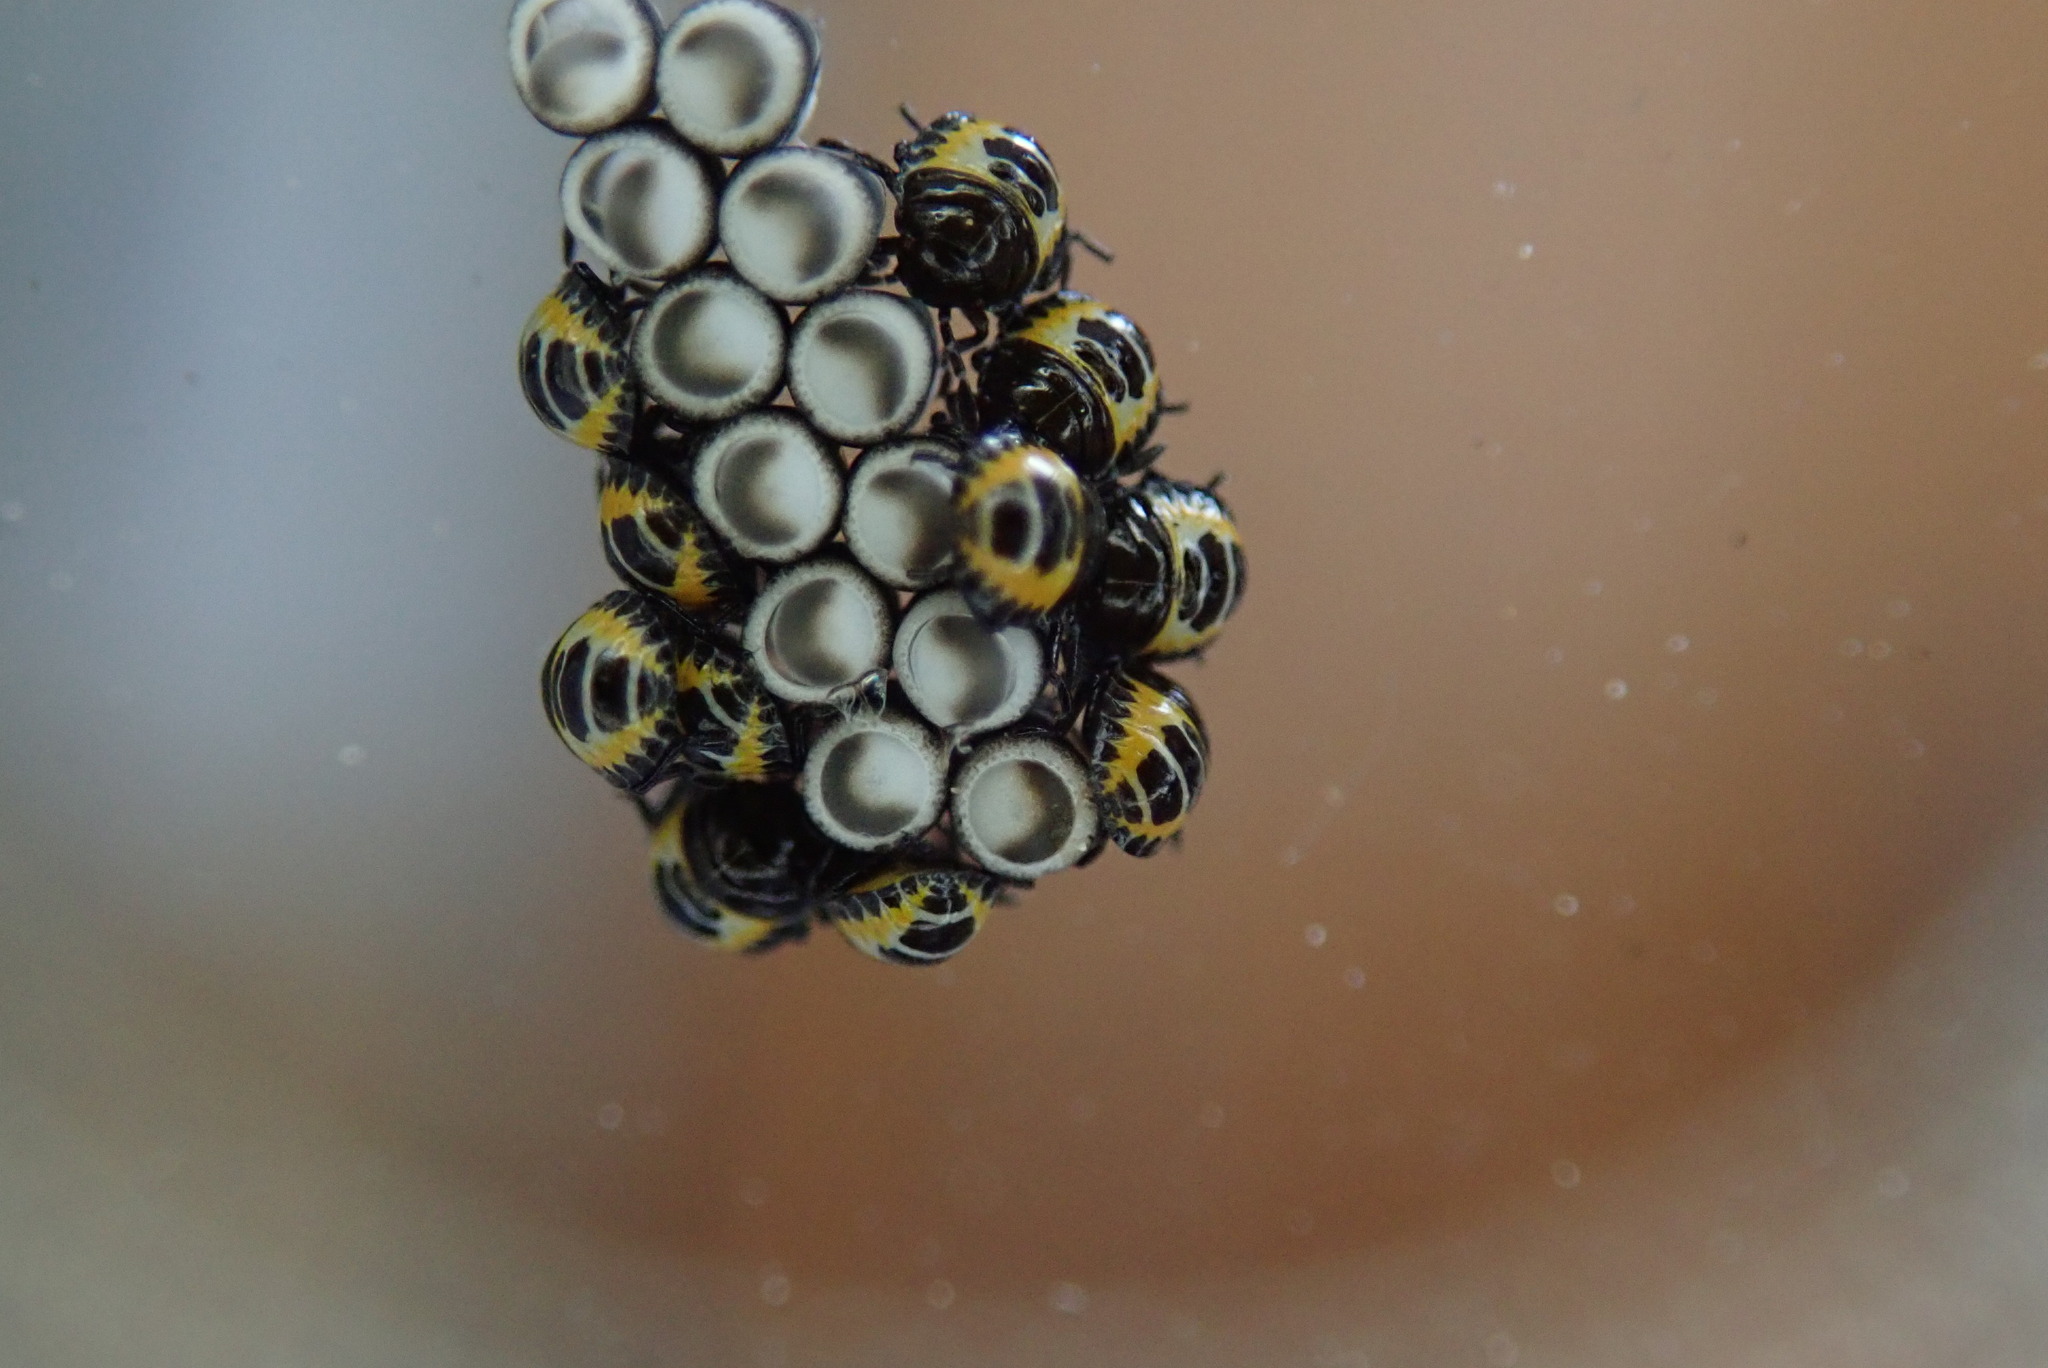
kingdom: Animalia
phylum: Arthropoda
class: Insecta
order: Hemiptera
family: Pentatomidae
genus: Murgantia
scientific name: Murgantia histrionica
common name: Harlequin bug
